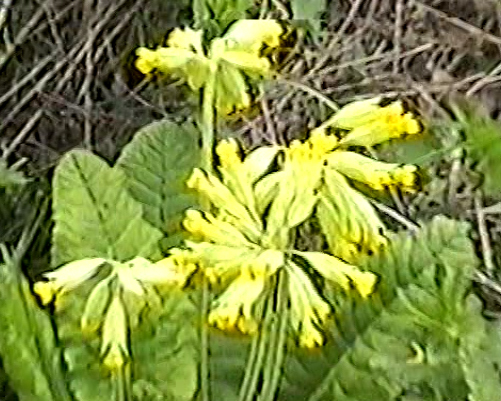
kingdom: Plantae
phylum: Tracheophyta
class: Magnoliopsida
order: Ericales
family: Primulaceae
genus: Primula
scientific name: Primula veris
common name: Cowslip
